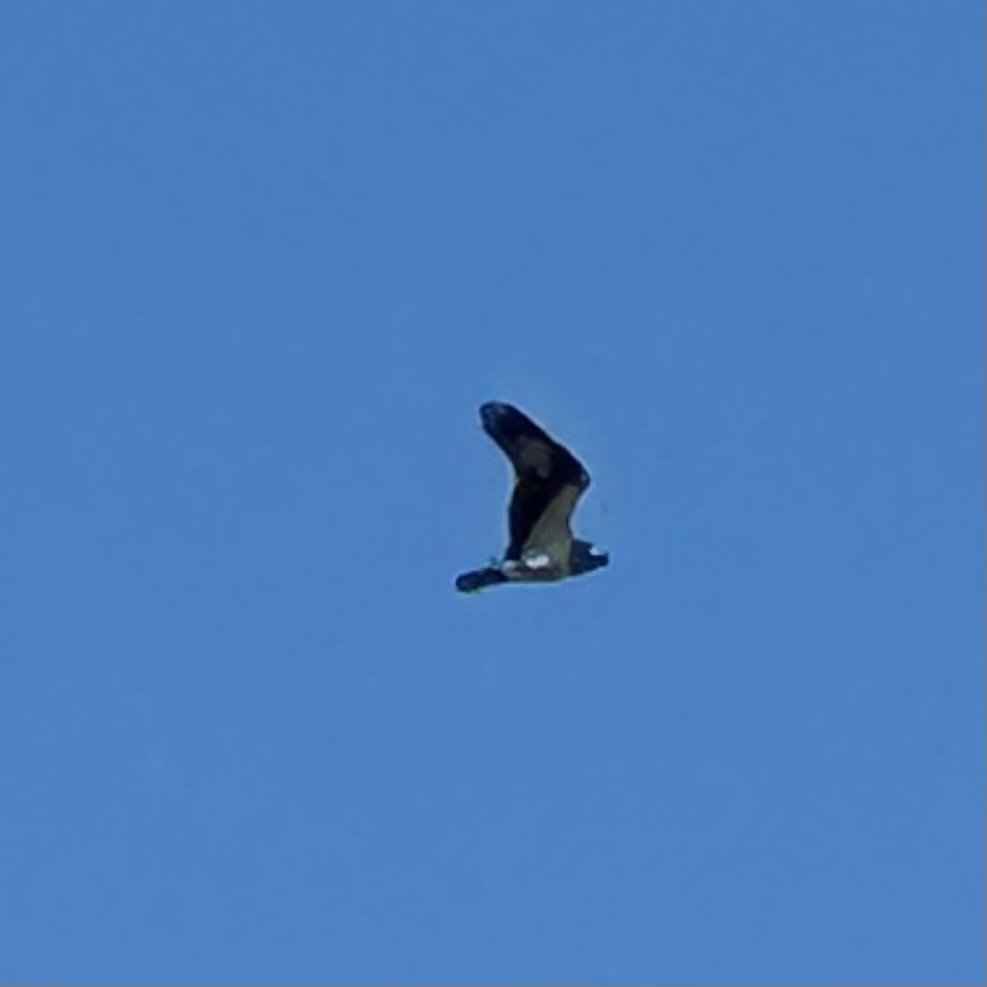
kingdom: Animalia
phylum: Chordata
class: Aves
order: Accipitriformes
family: Pandionidae
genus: Pandion
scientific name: Pandion haliaetus
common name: Osprey
